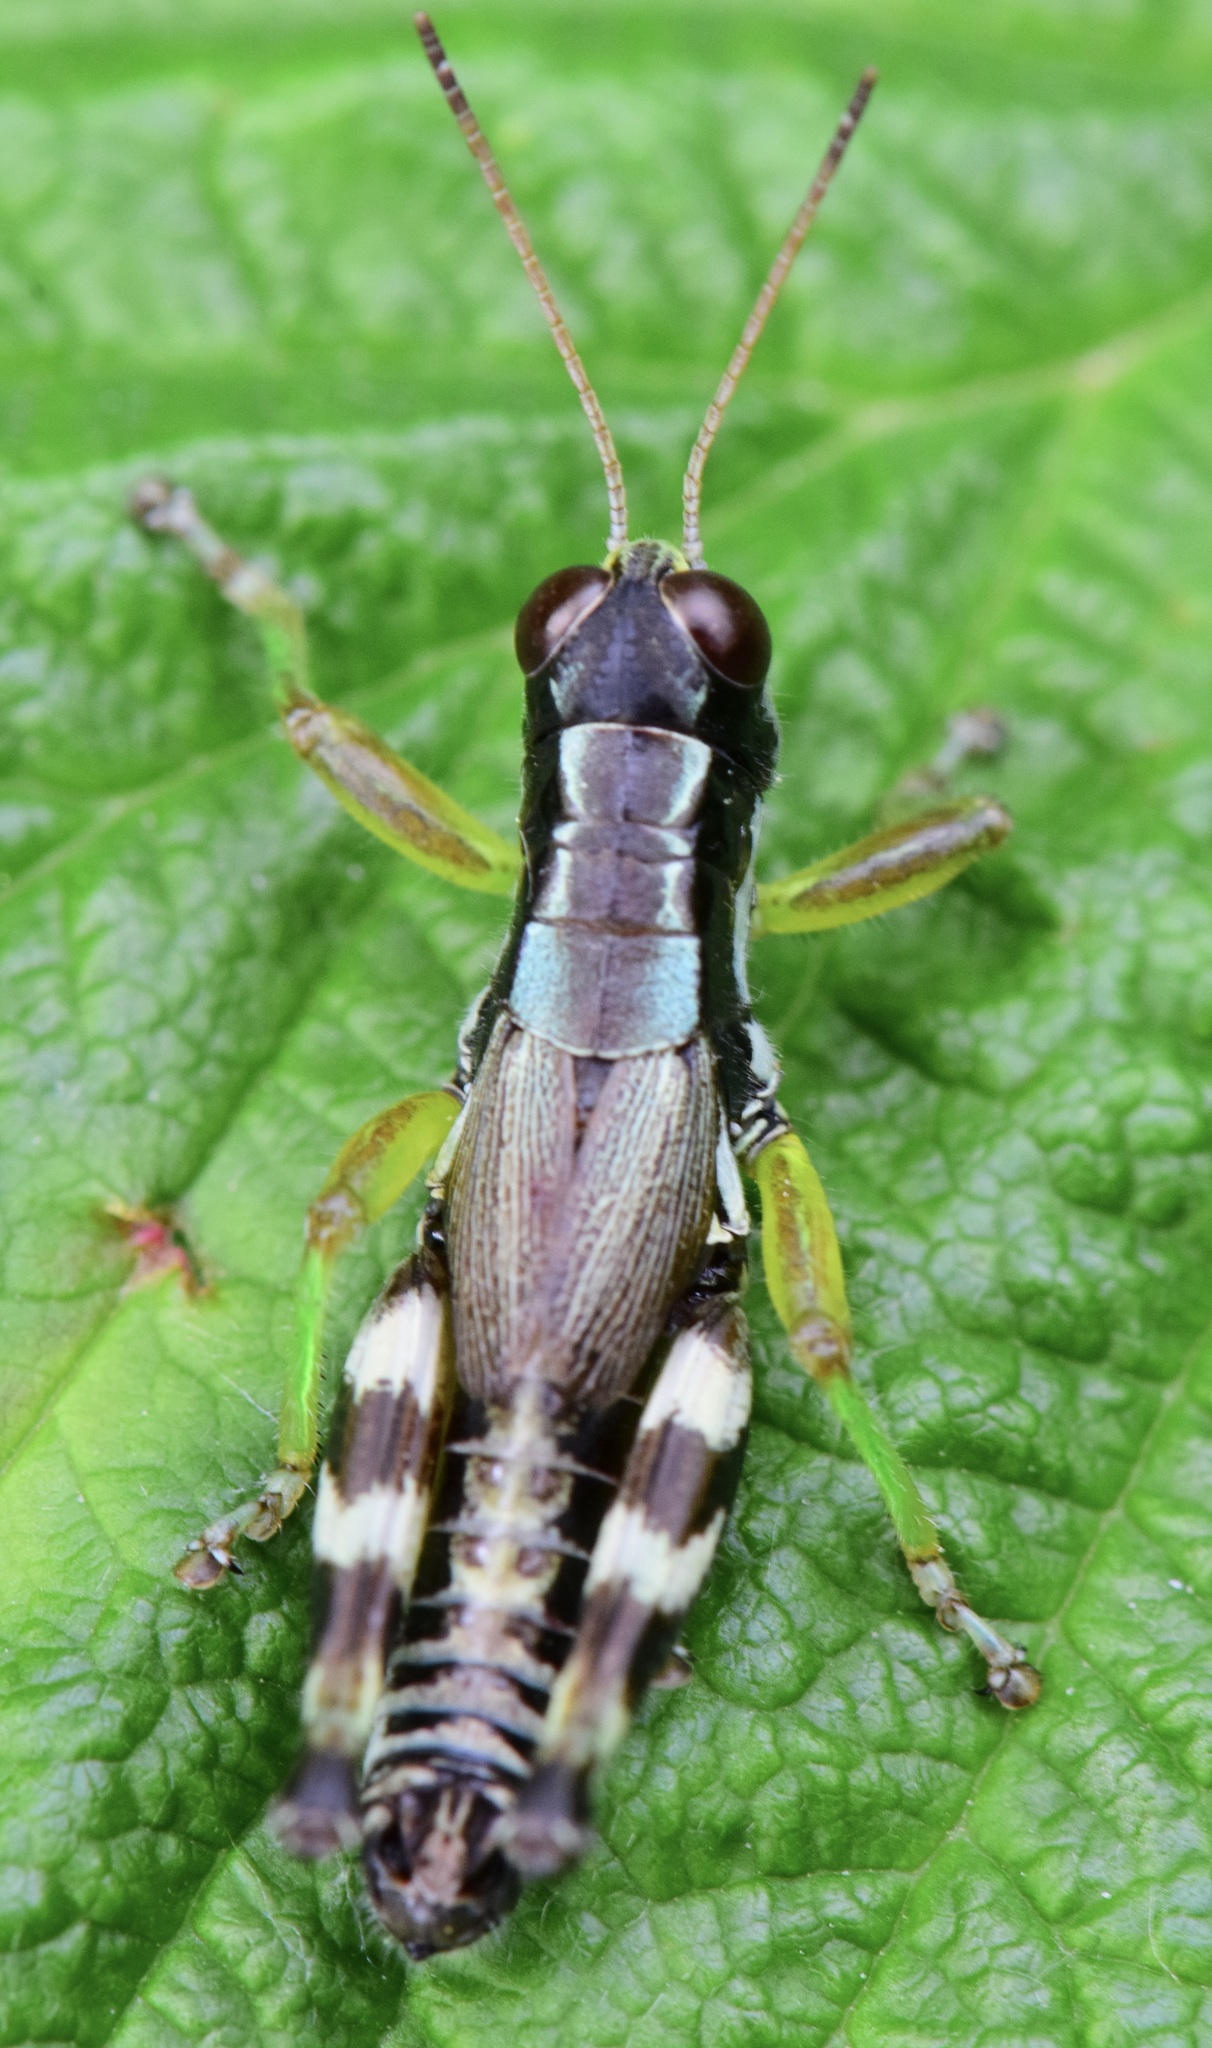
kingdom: Animalia
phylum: Arthropoda
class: Insecta
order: Orthoptera
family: Acrididae
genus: Melanoplus
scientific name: Melanoplus viridipes
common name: Green-legged locust
